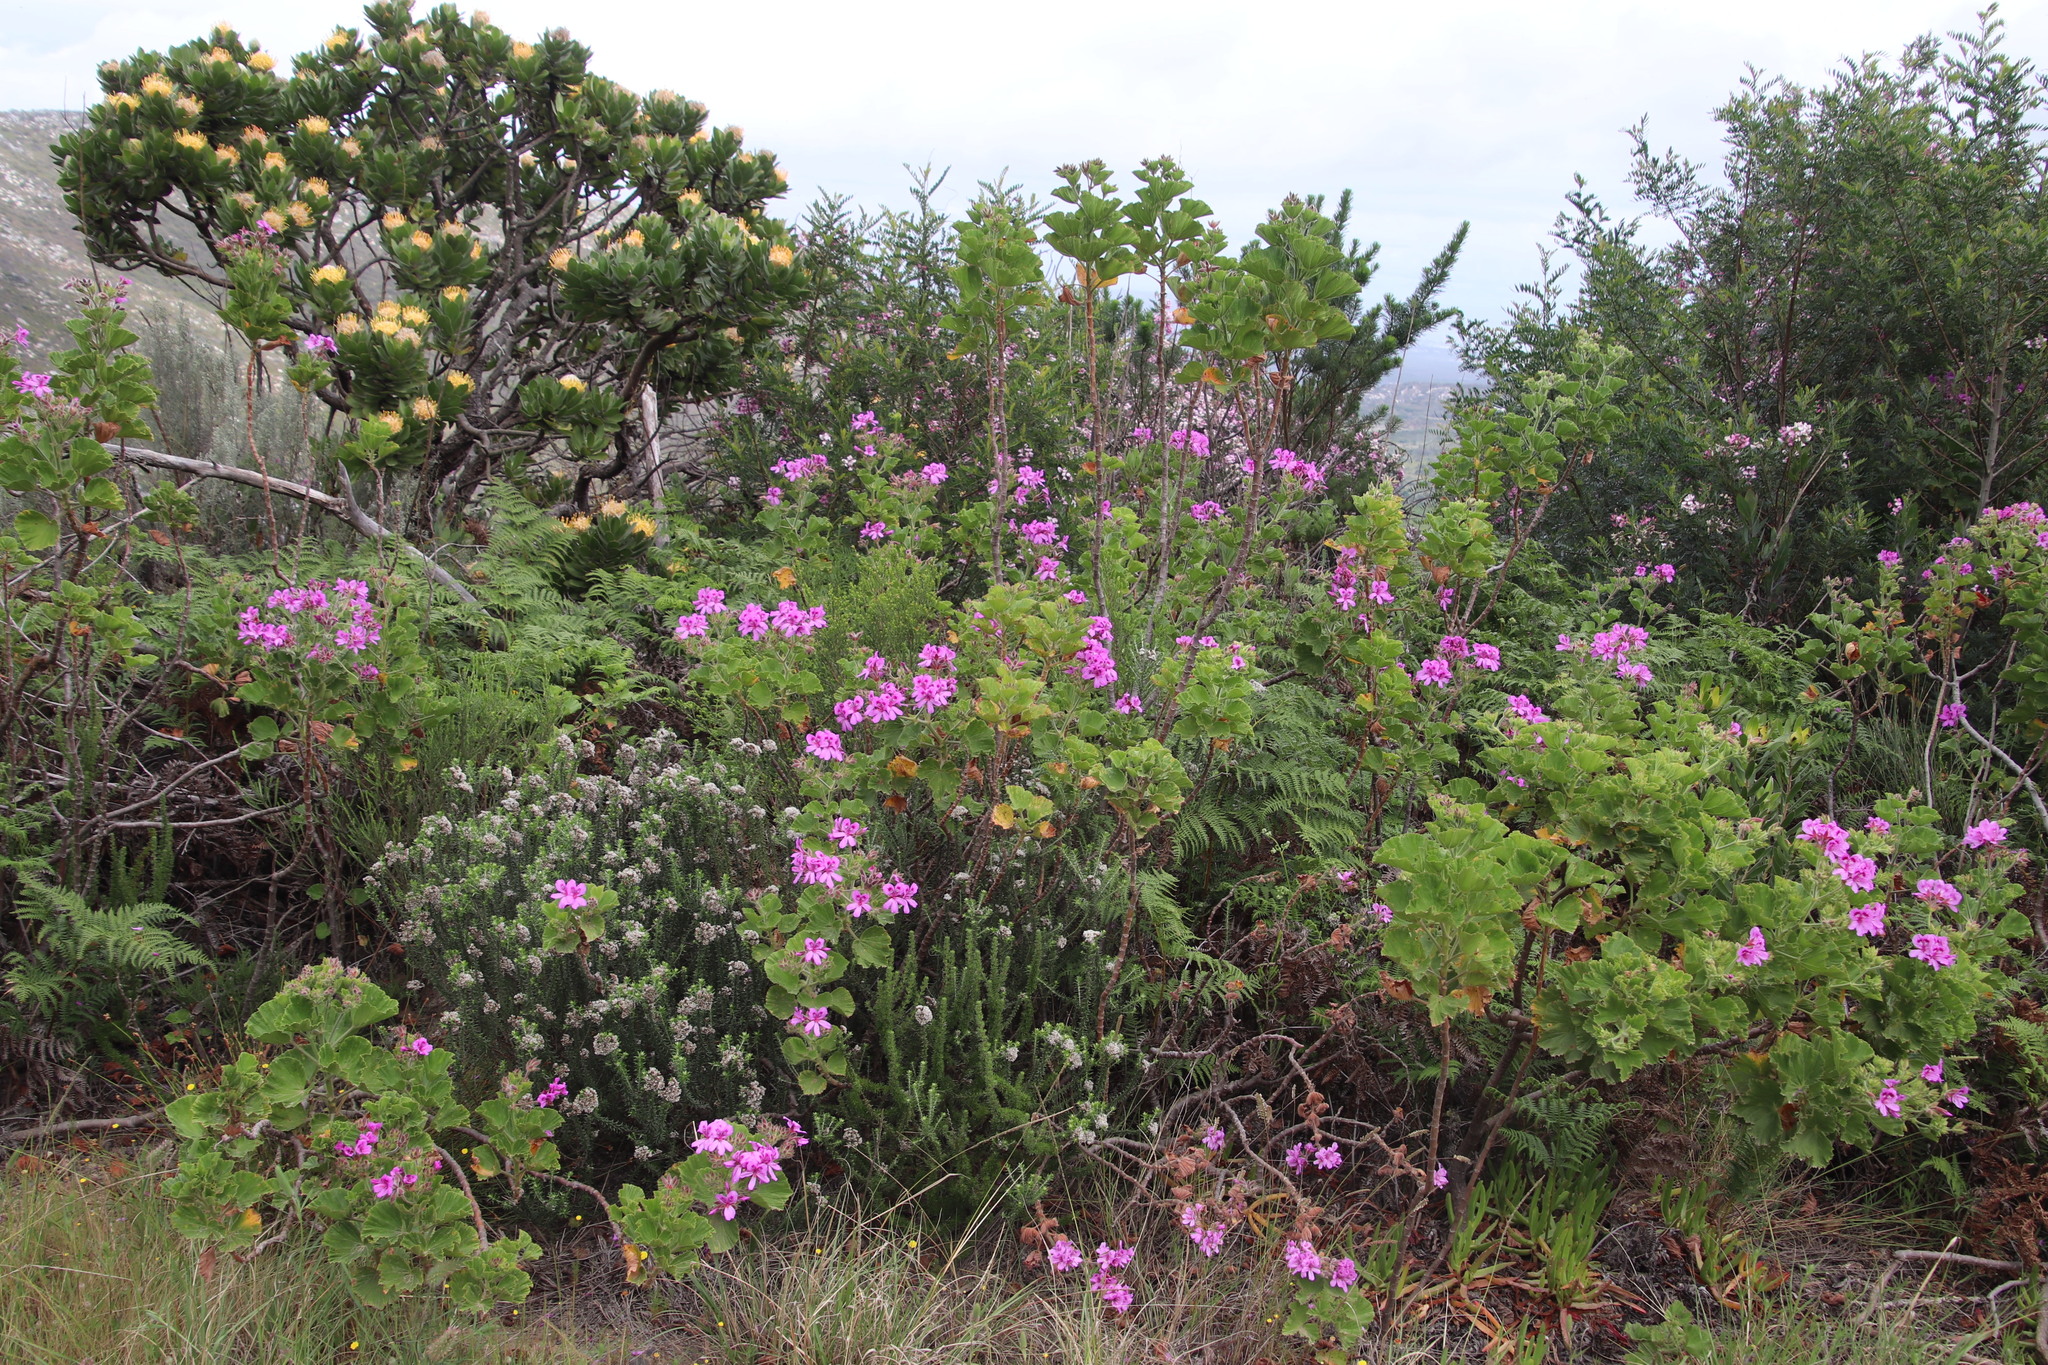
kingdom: Plantae
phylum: Tracheophyta
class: Magnoliopsida
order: Geraniales
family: Geraniaceae
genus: Pelargonium
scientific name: Pelargonium cucullatum
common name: Tree pelargonium
